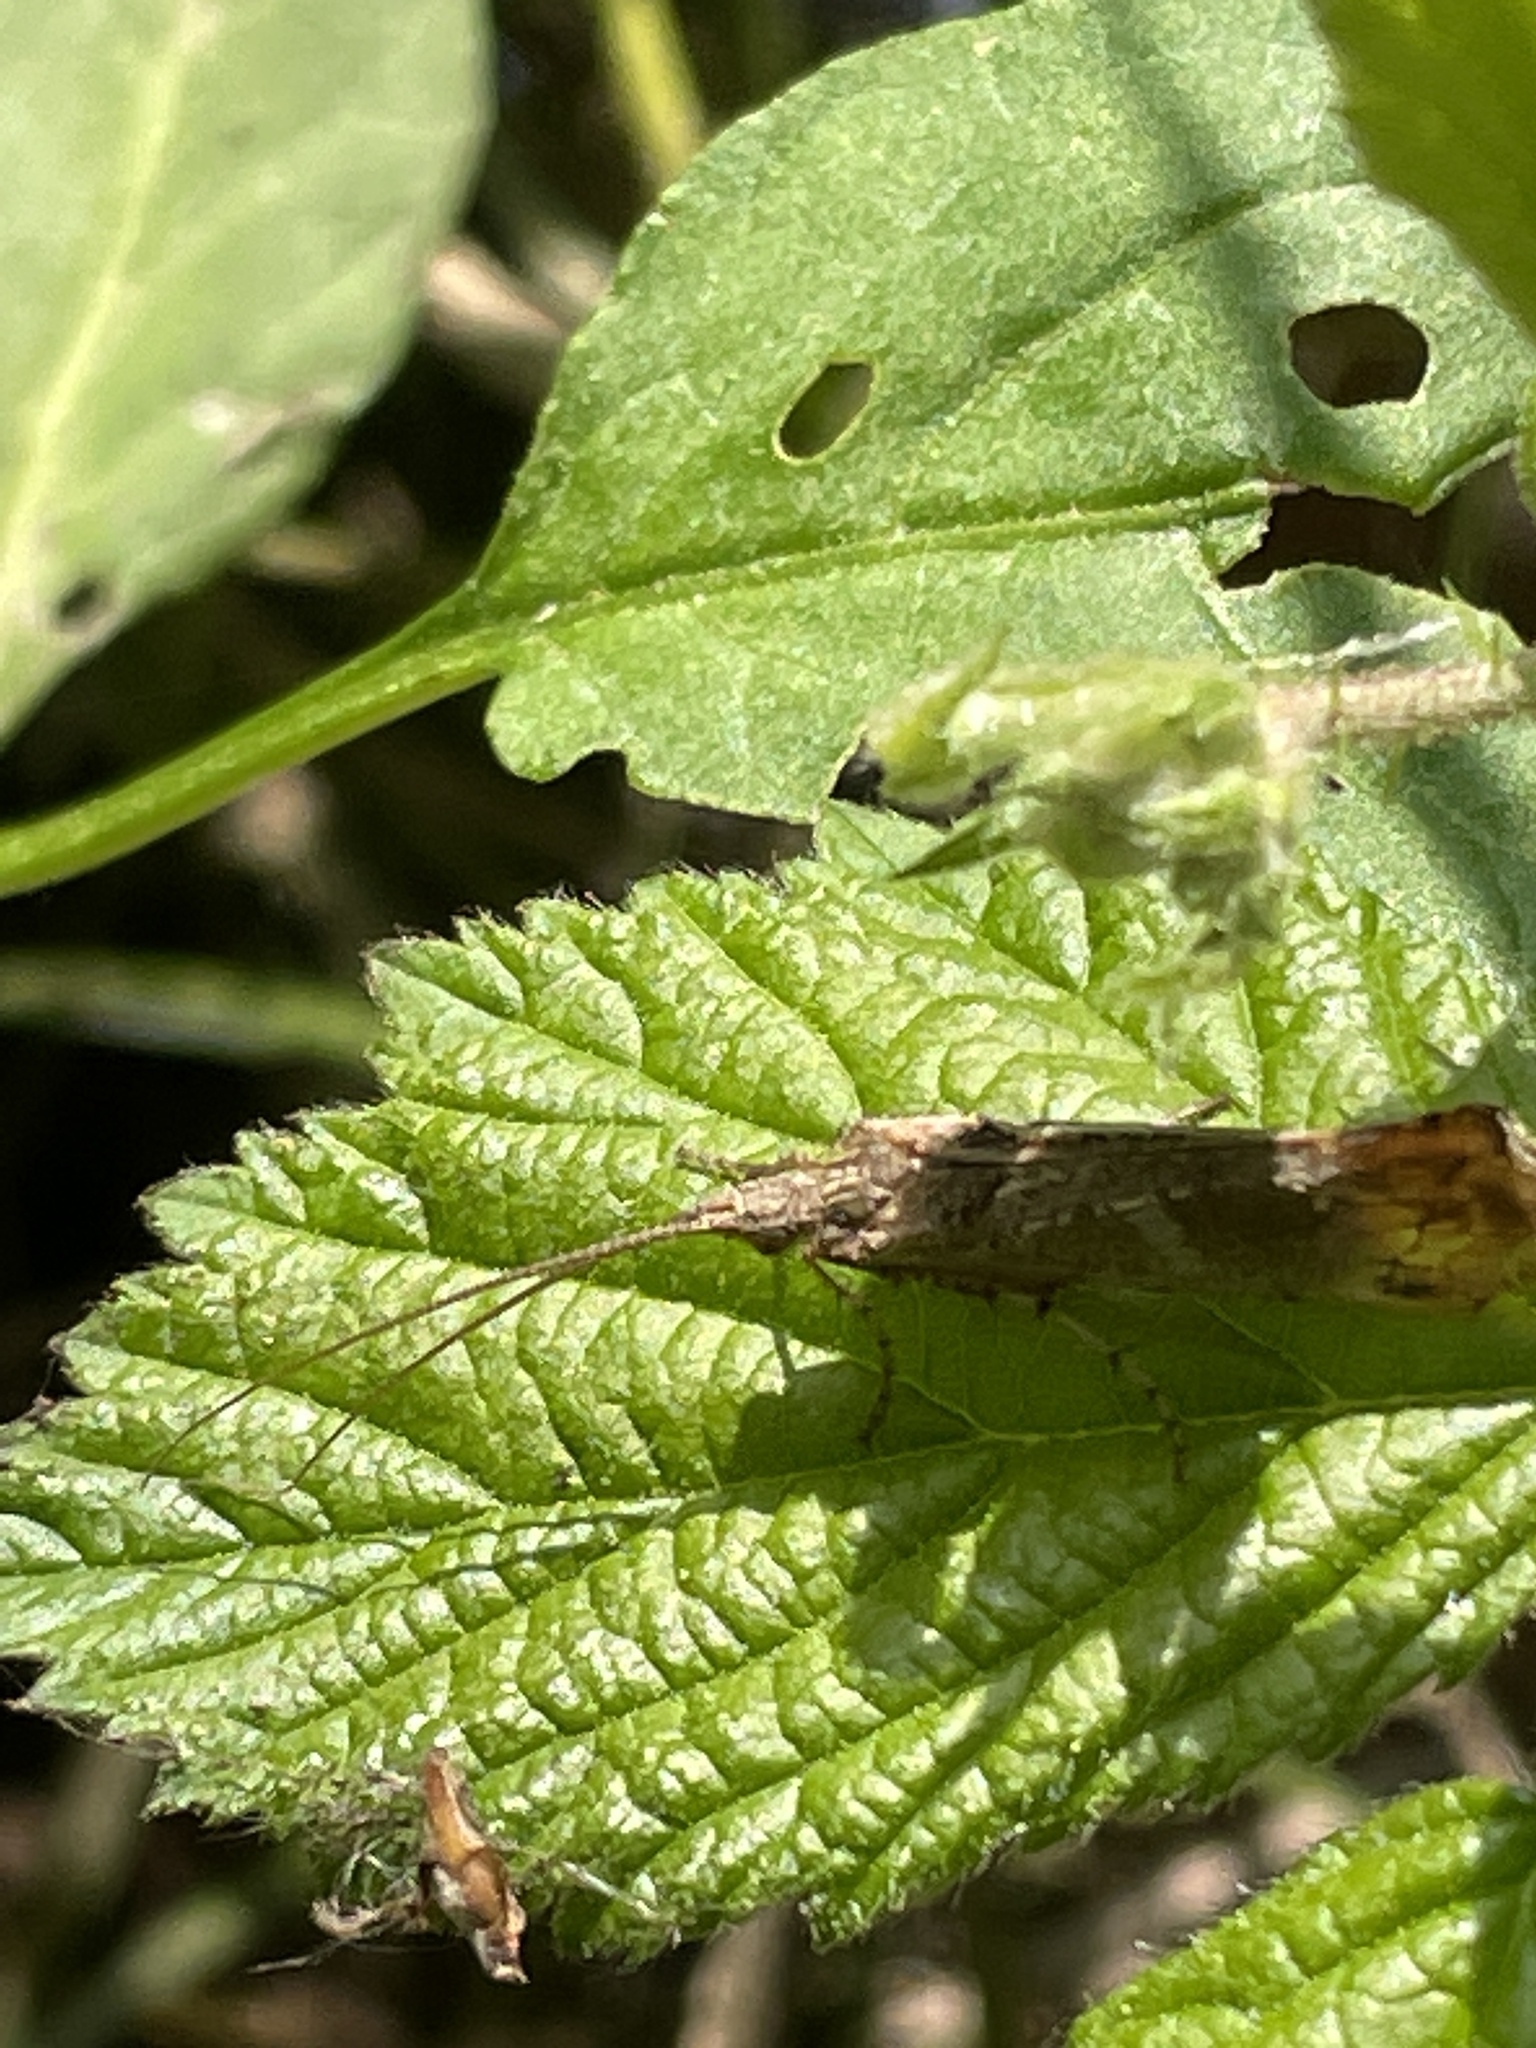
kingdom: Animalia
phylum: Arthropoda
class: Insecta
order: Trichoptera
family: Limnephilidae
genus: Glyphotaelius
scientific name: Glyphotaelius pellucidus
